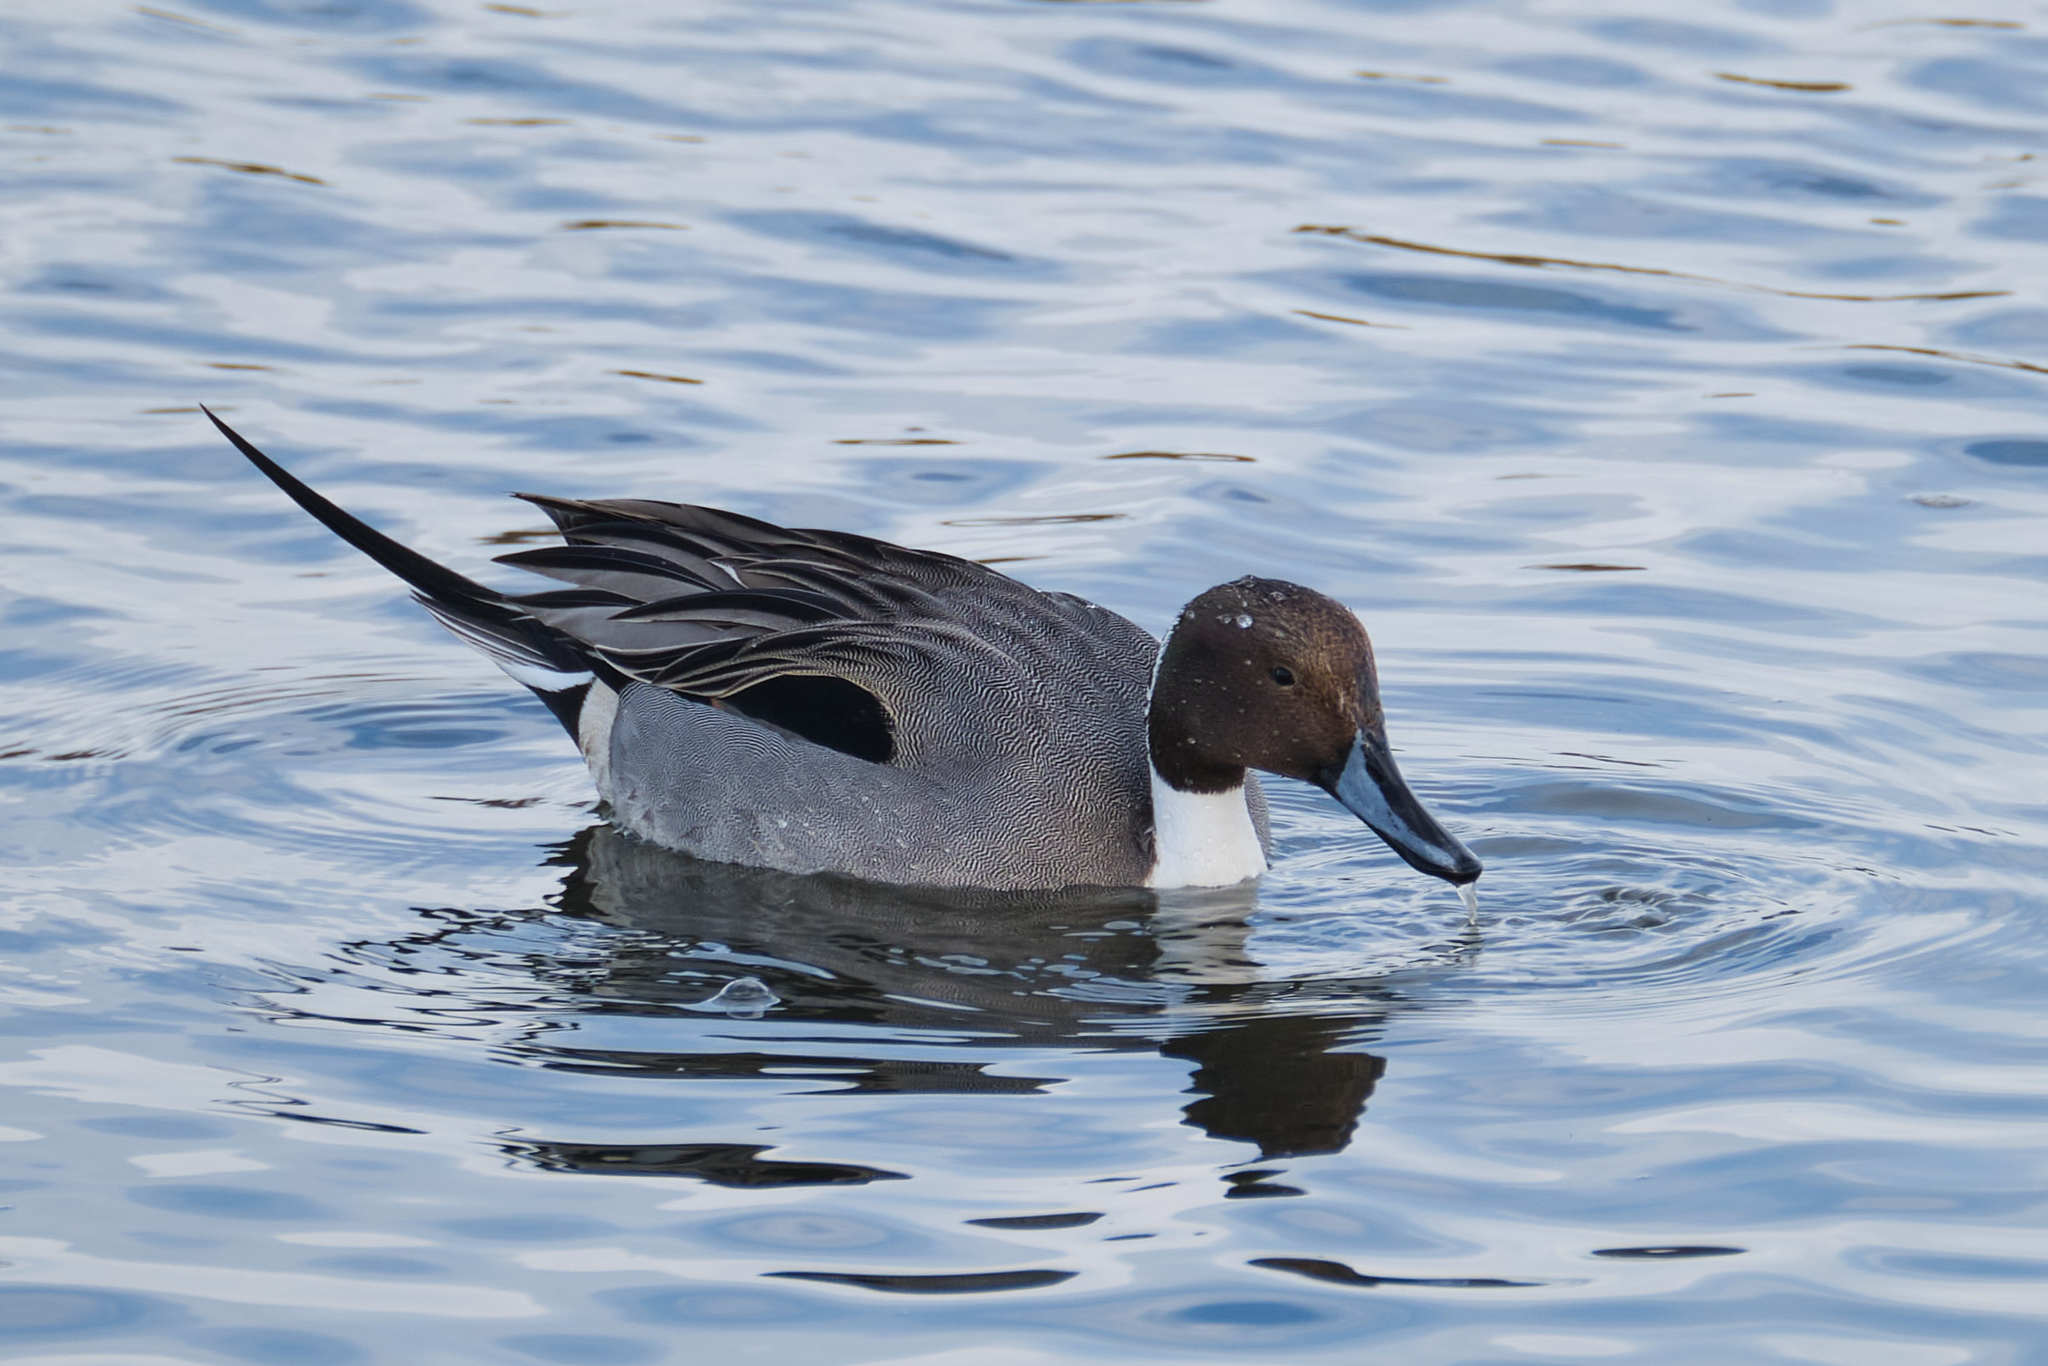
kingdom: Animalia
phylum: Chordata
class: Aves
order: Anseriformes
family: Anatidae
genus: Anas
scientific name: Anas acuta
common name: Northern pintail
